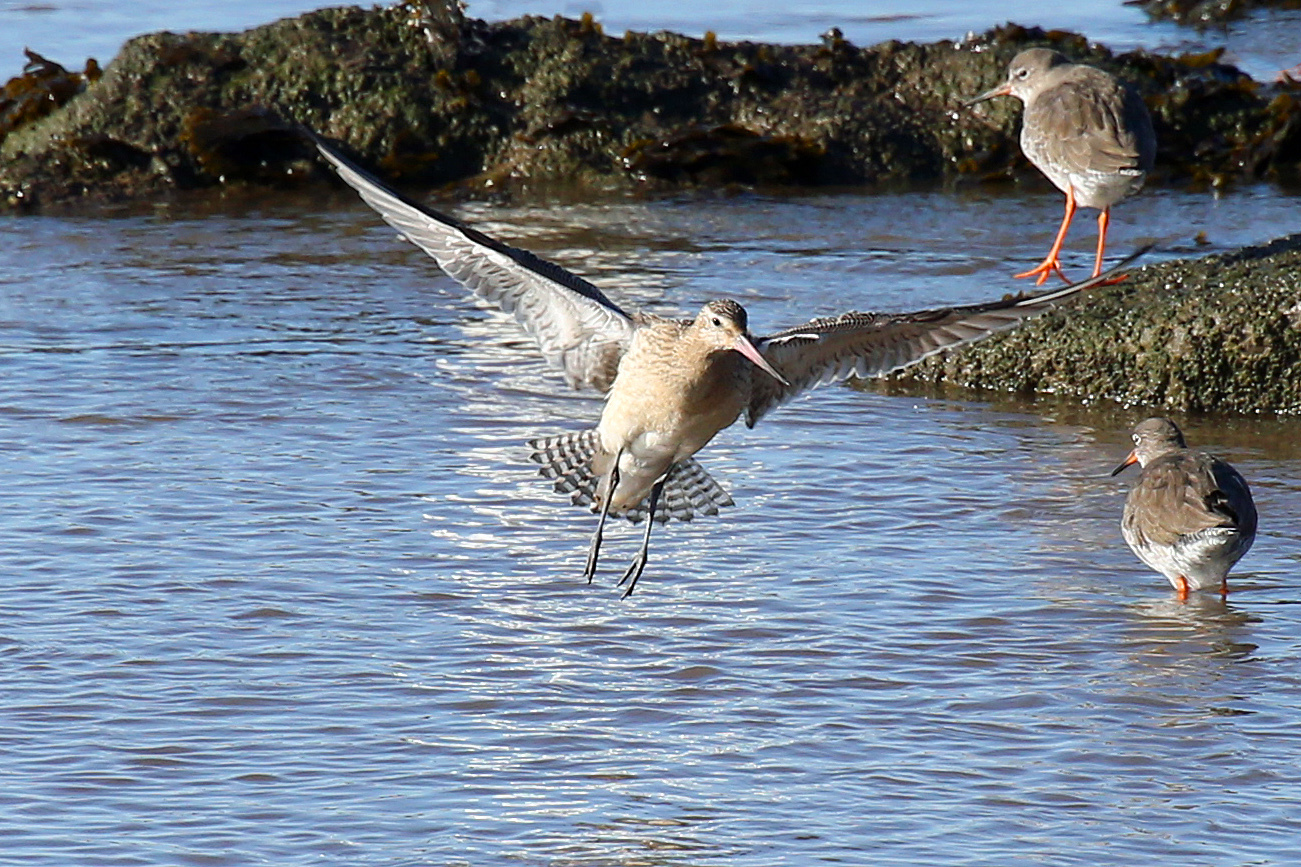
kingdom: Animalia
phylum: Chordata
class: Aves
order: Charadriiformes
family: Scolopacidae
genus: Limosa
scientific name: Limosa lapponica
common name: Bar-tailed godwit
